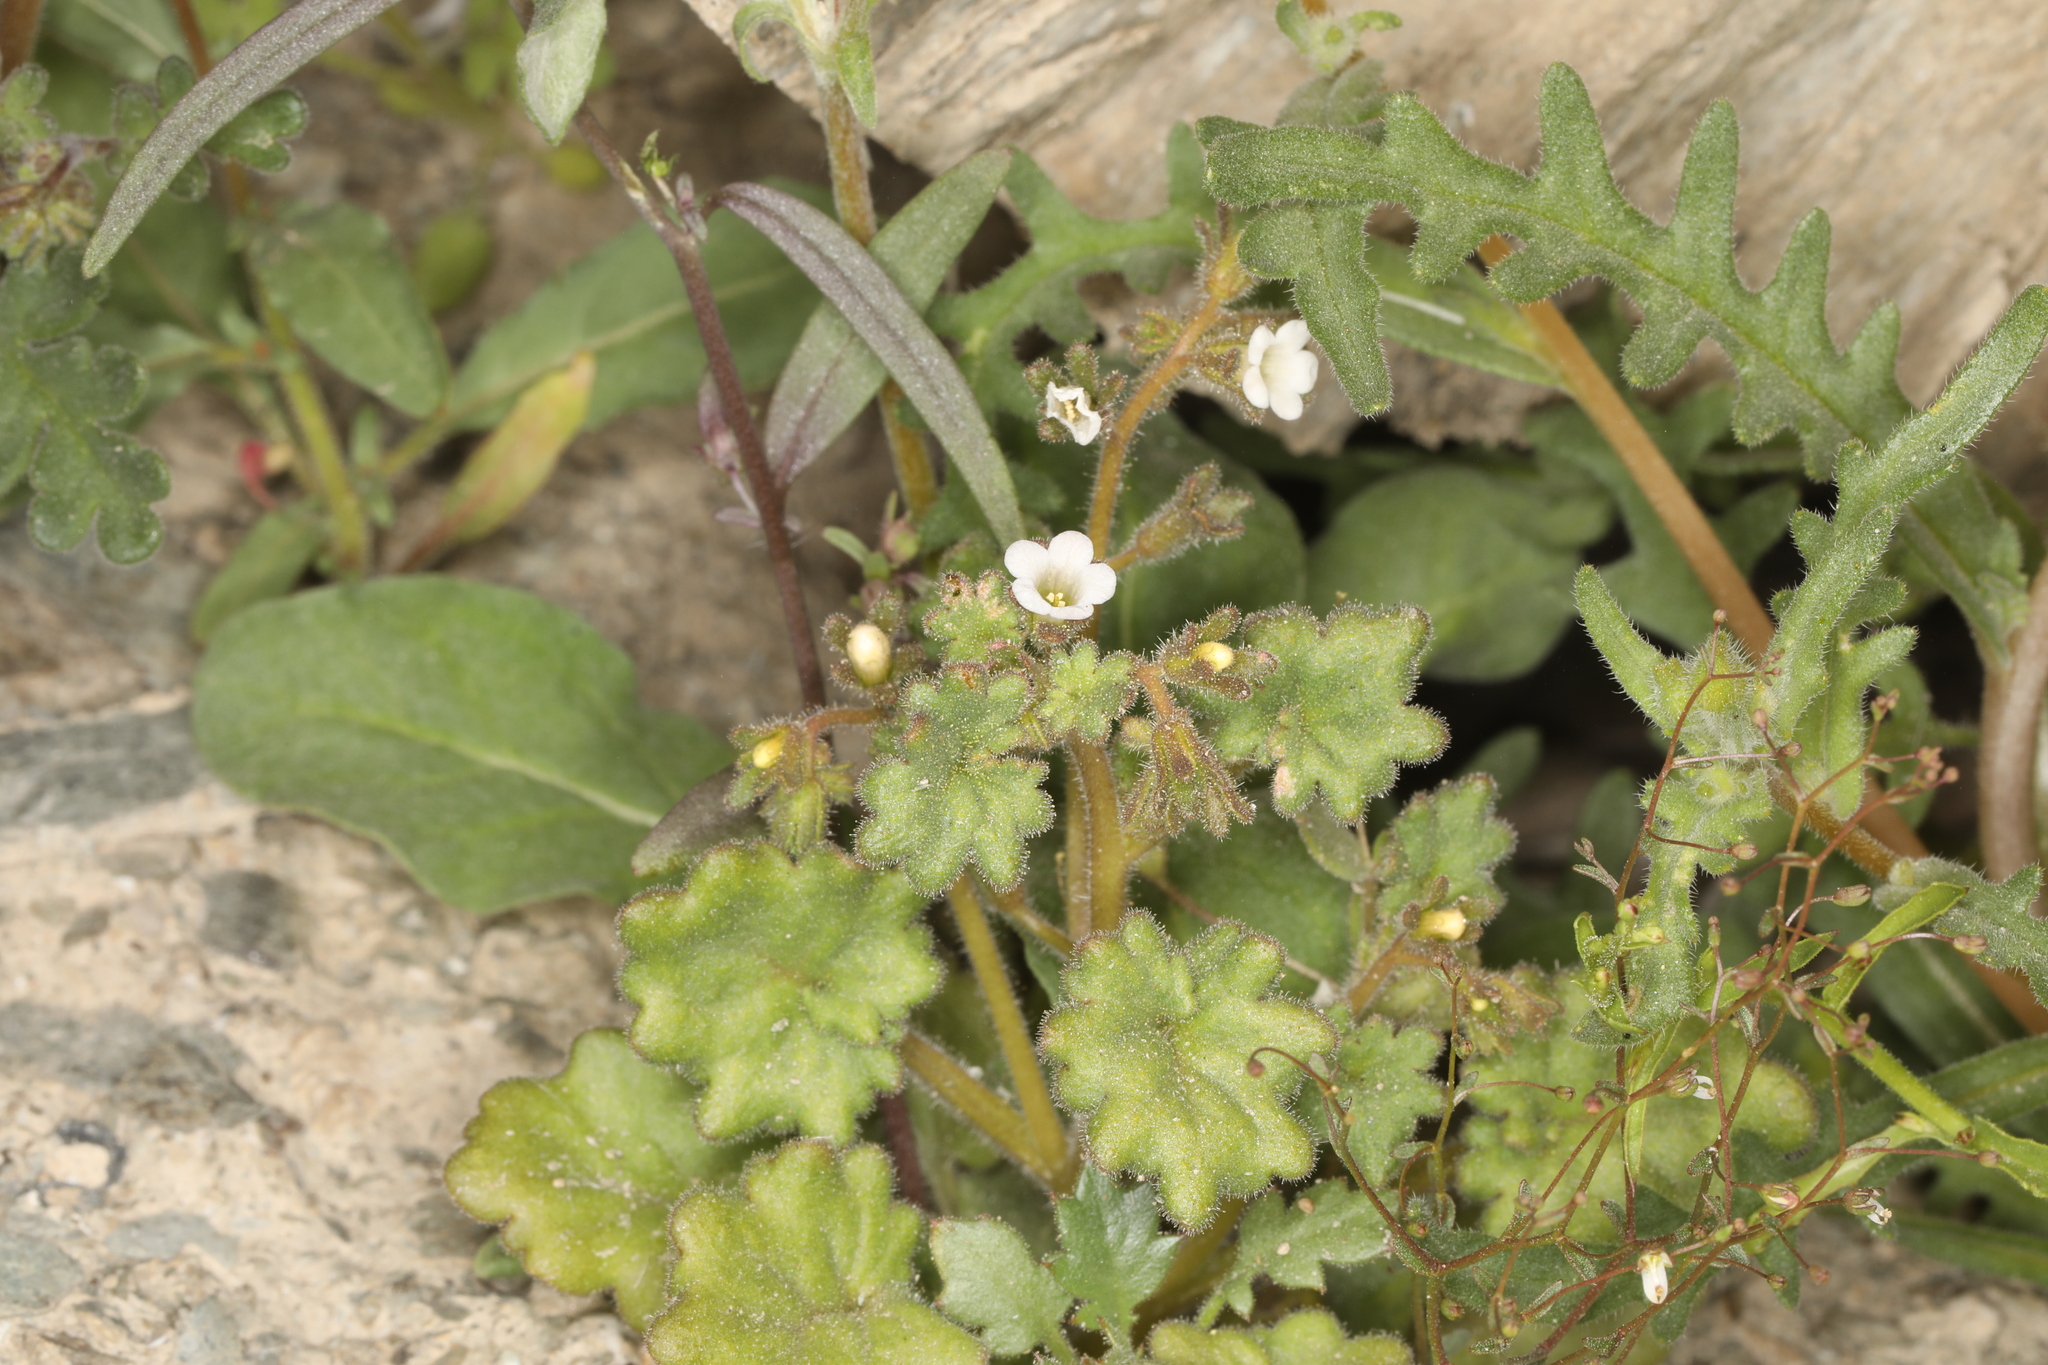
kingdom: Plantae
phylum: Tracheophyta
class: Magnoliopsida
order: Boraginales
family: Hydrophyllaceae
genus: Phacelia
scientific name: Phacelia rotundifolia
